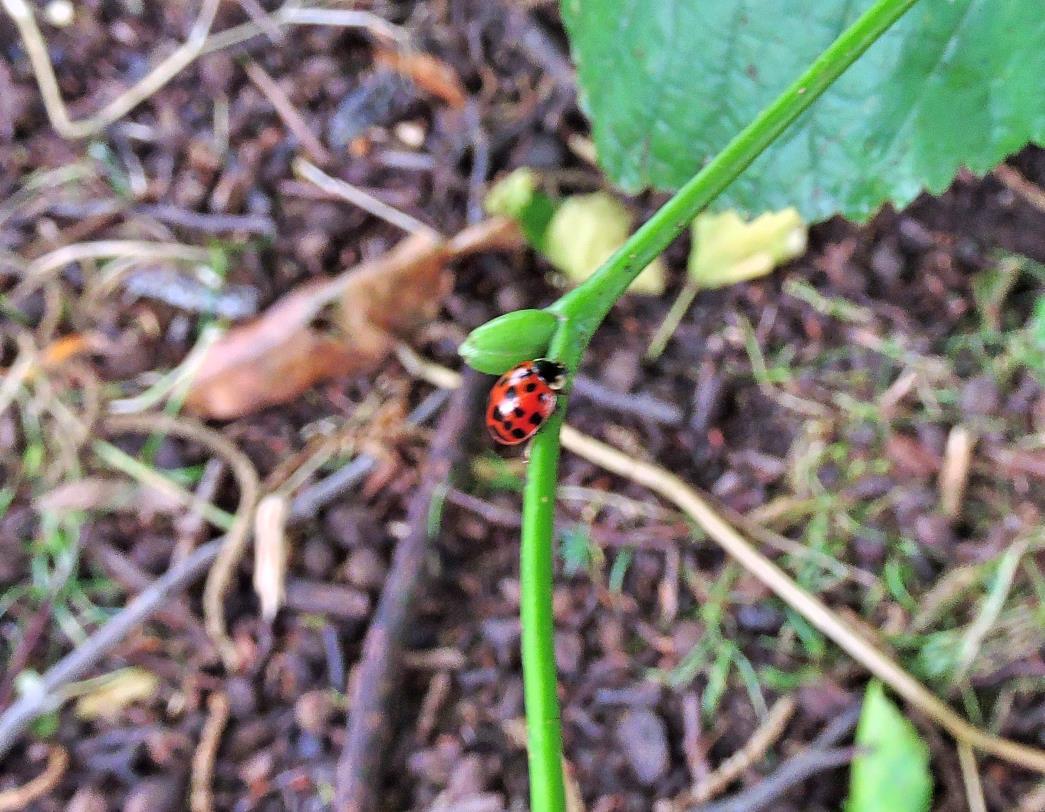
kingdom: Animalia
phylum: Arthropoda
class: Insecta
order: Coleoptera
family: Coccinellidae
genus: Harmonia
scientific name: Harmonia axyridis
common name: Harlequin ladybird
